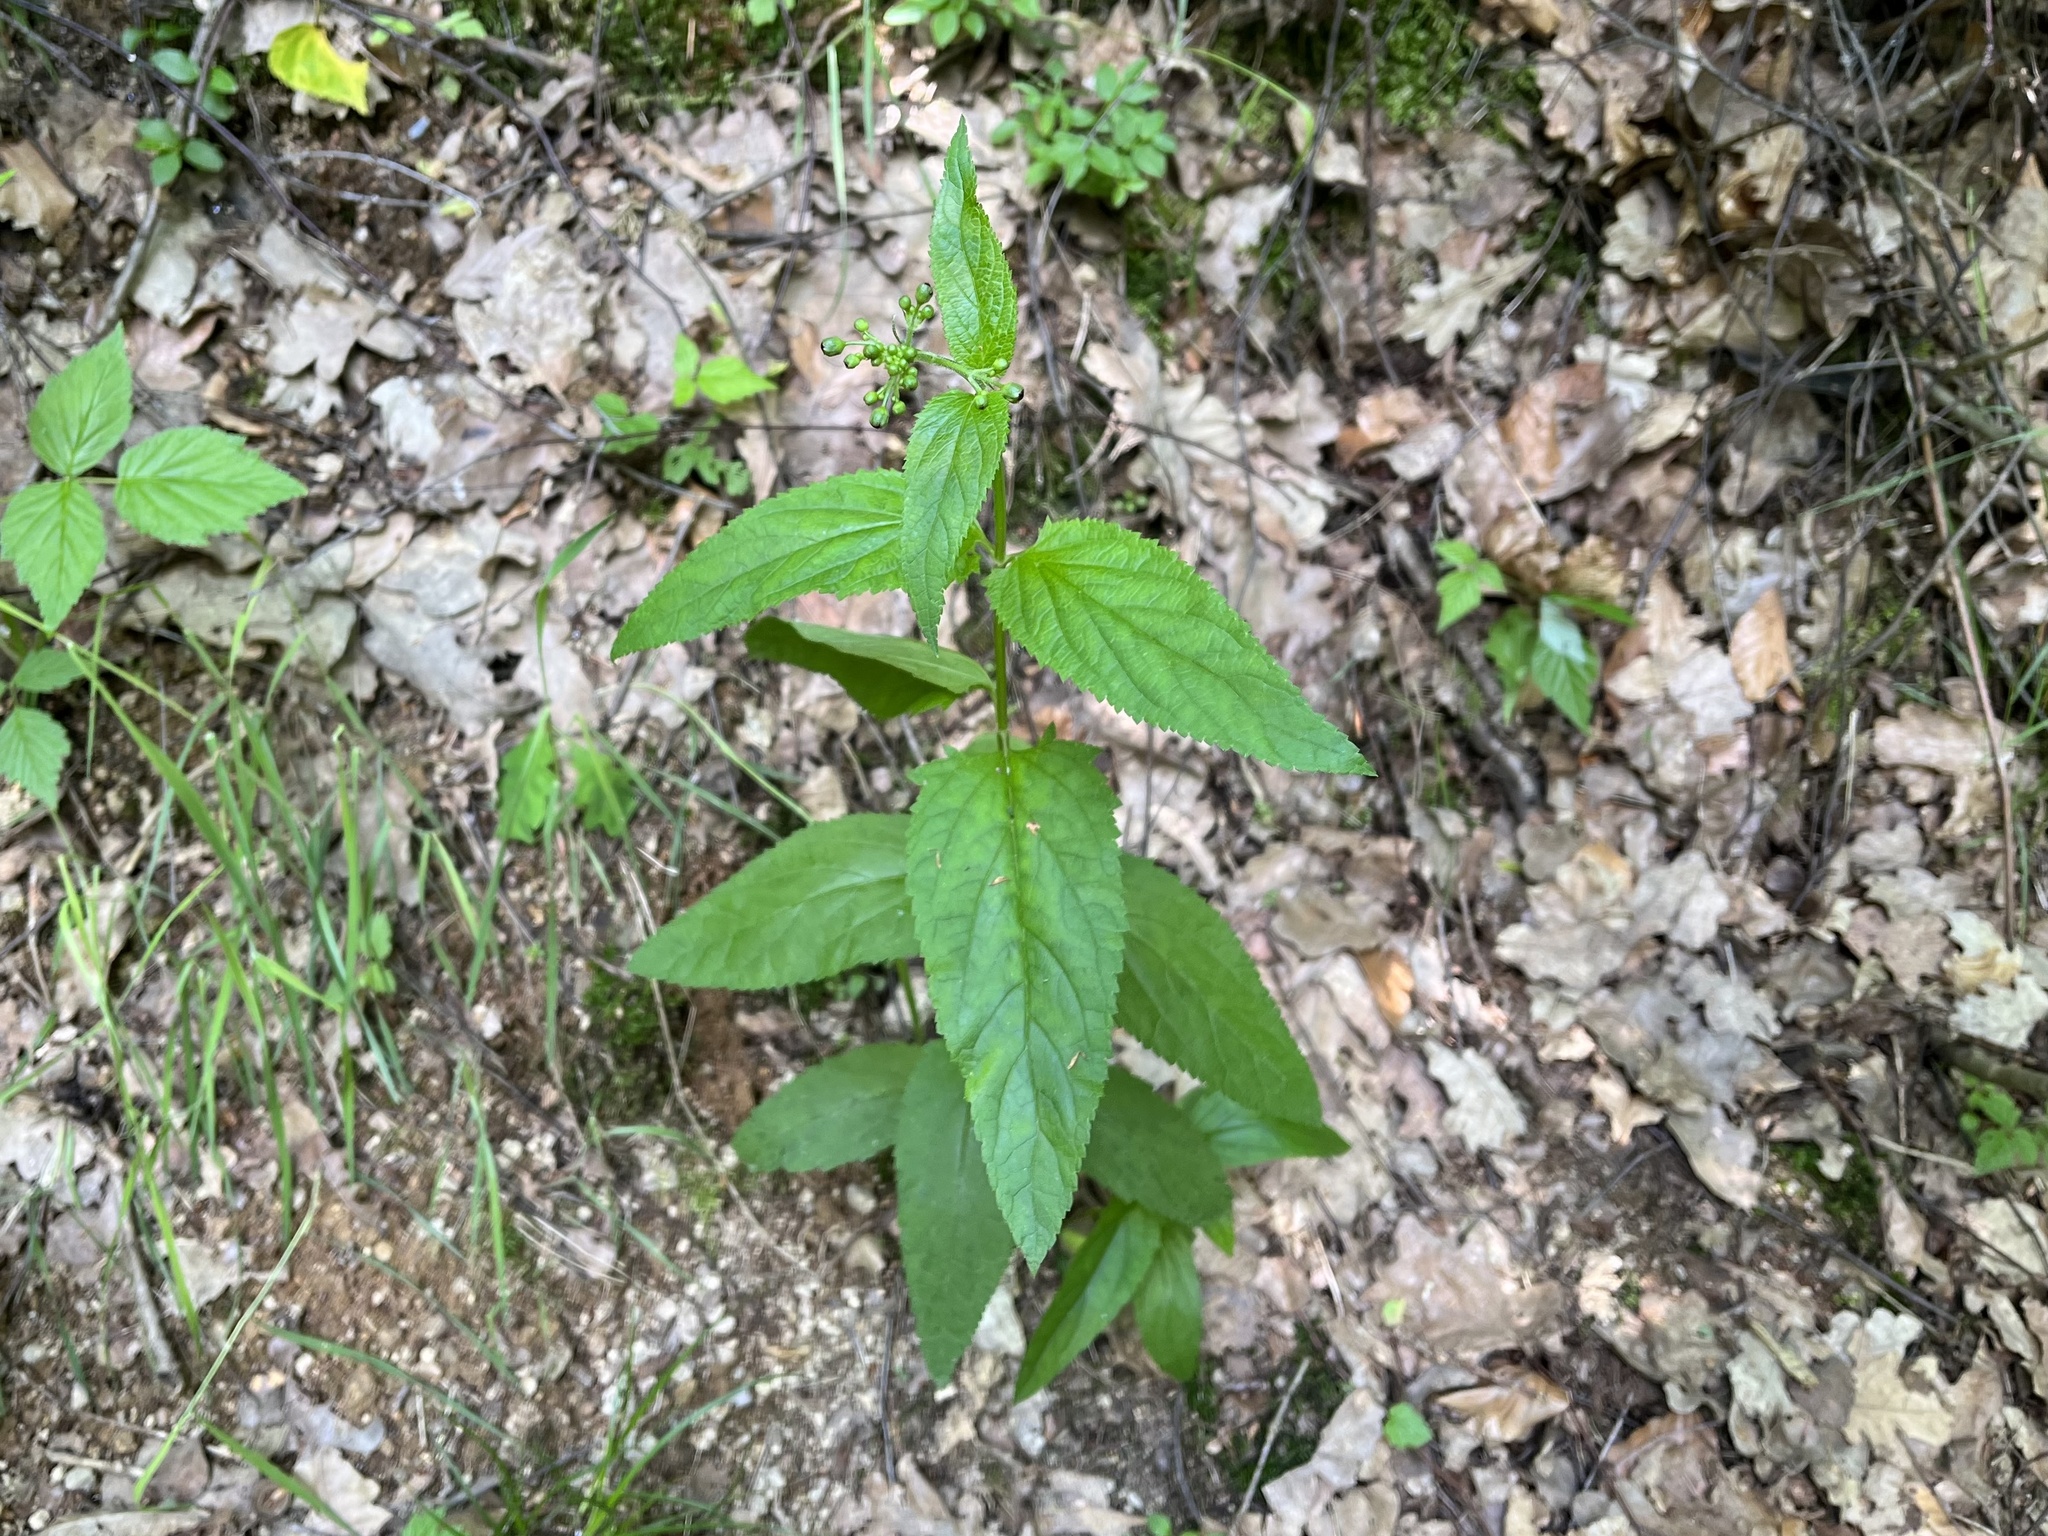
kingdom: Plantae
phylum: Tracheophyta
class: Magnoliopsida
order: Lamiales
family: Scrophulariaceae
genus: Scrophularia
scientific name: Scrophularia nodosa
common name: Common figwort
